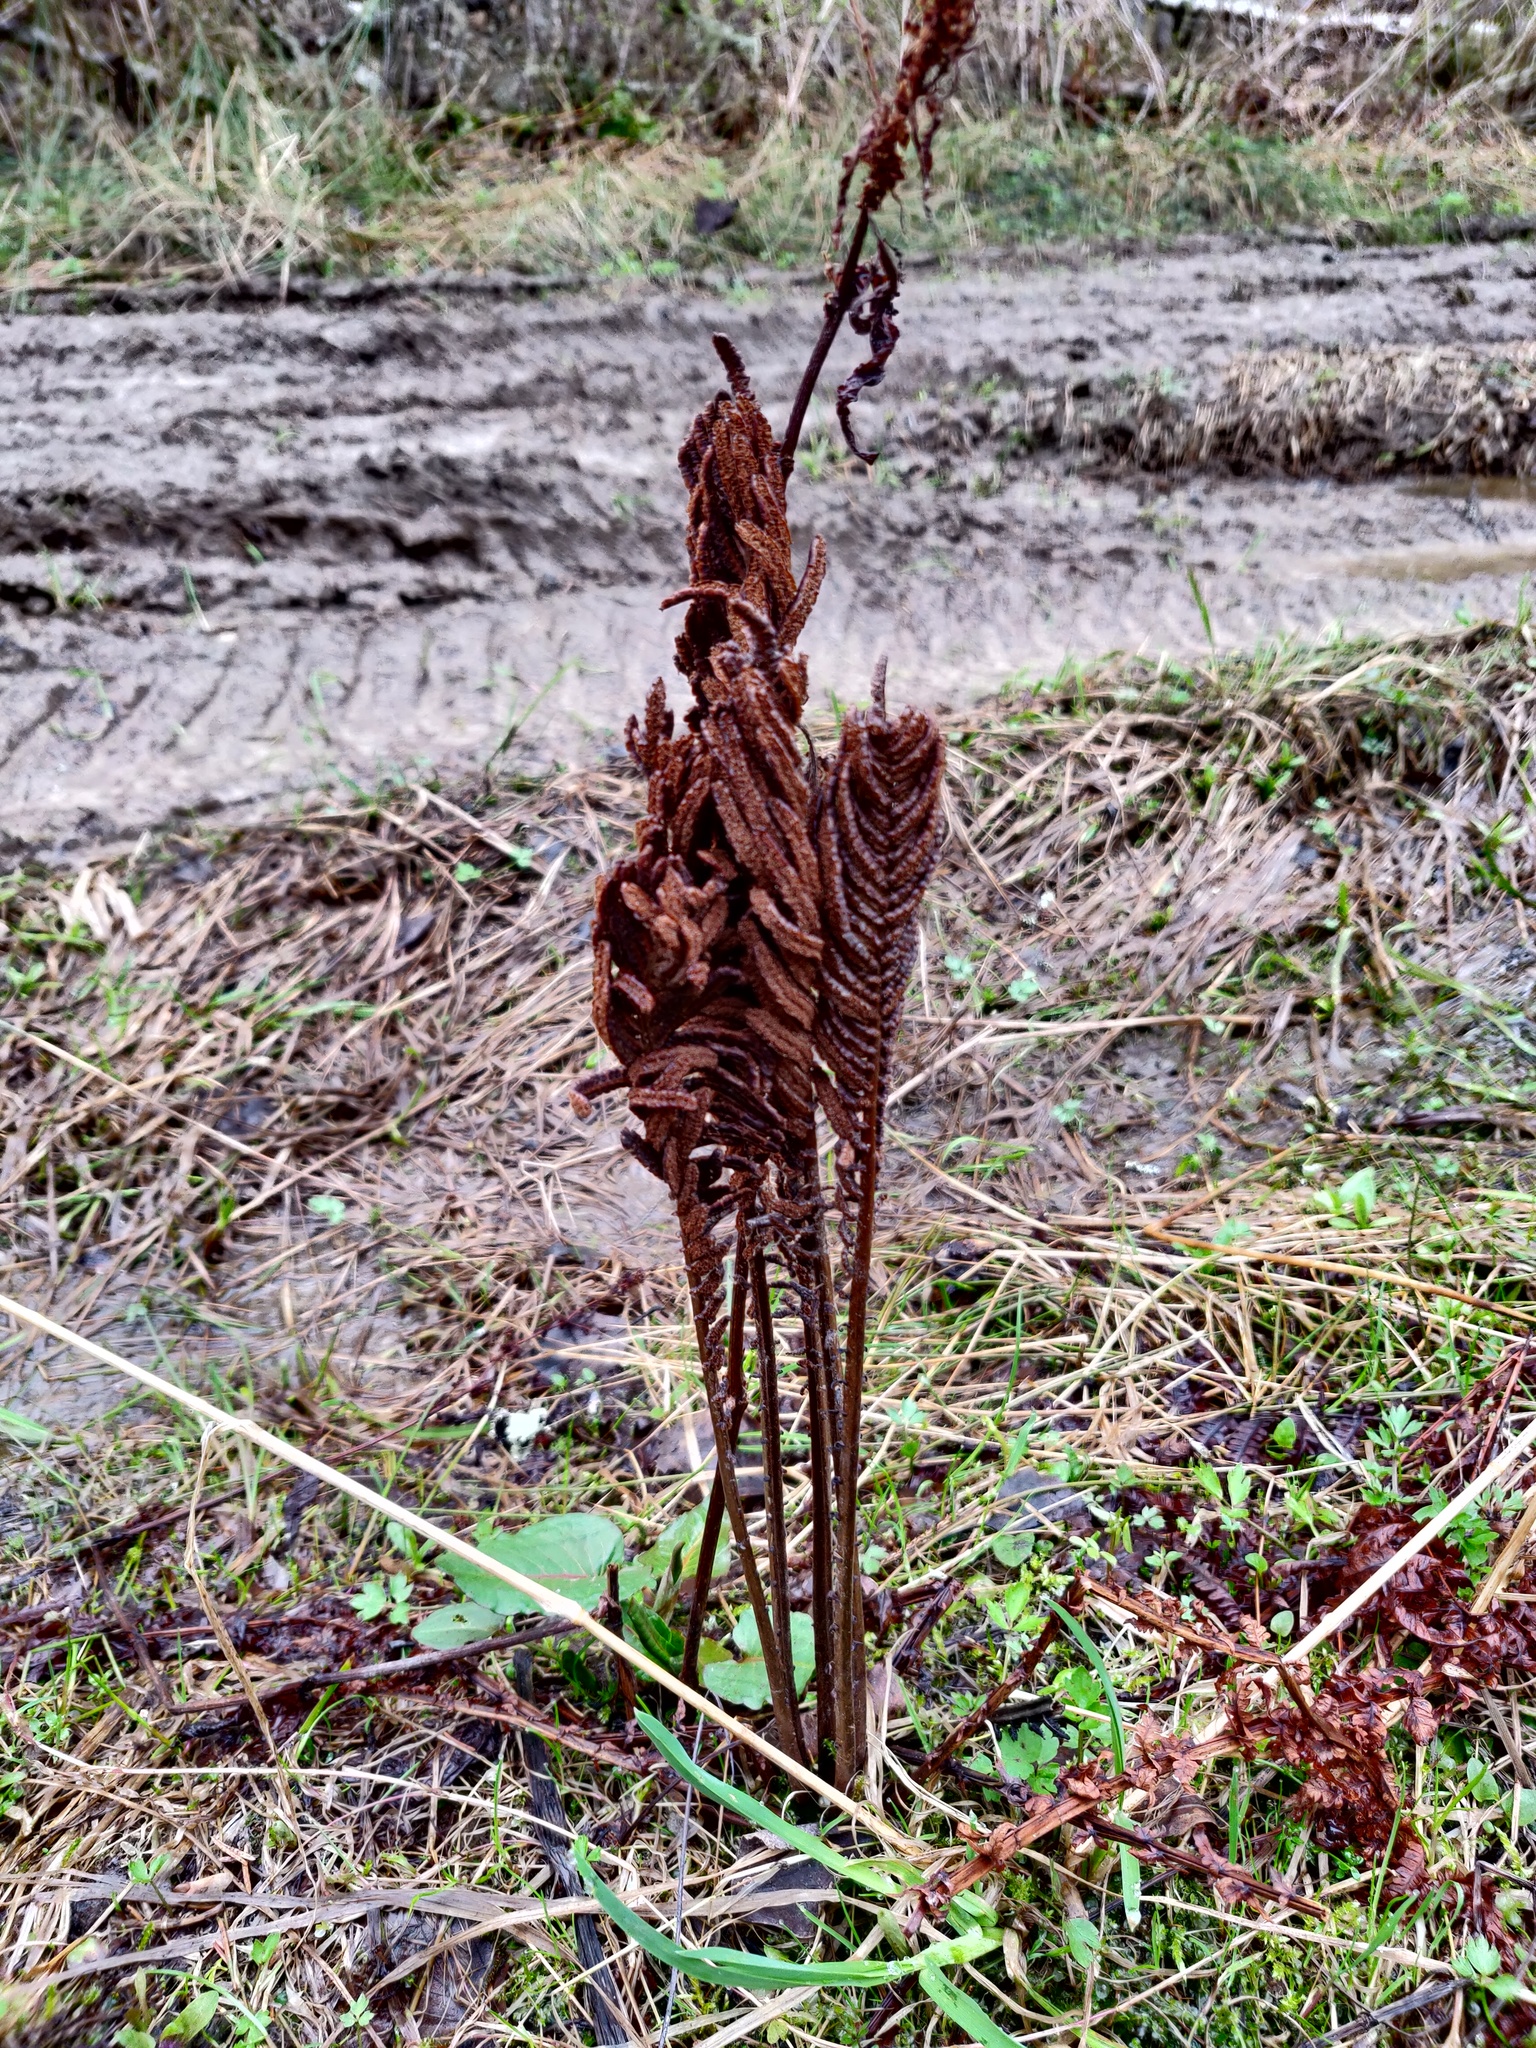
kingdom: Plantae
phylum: Tracheophyta
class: Polypodiopsida
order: Polypodiales
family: Onocleaceae
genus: Matteuccia
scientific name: Matteuccia struthiopteris
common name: Ostrich fern
